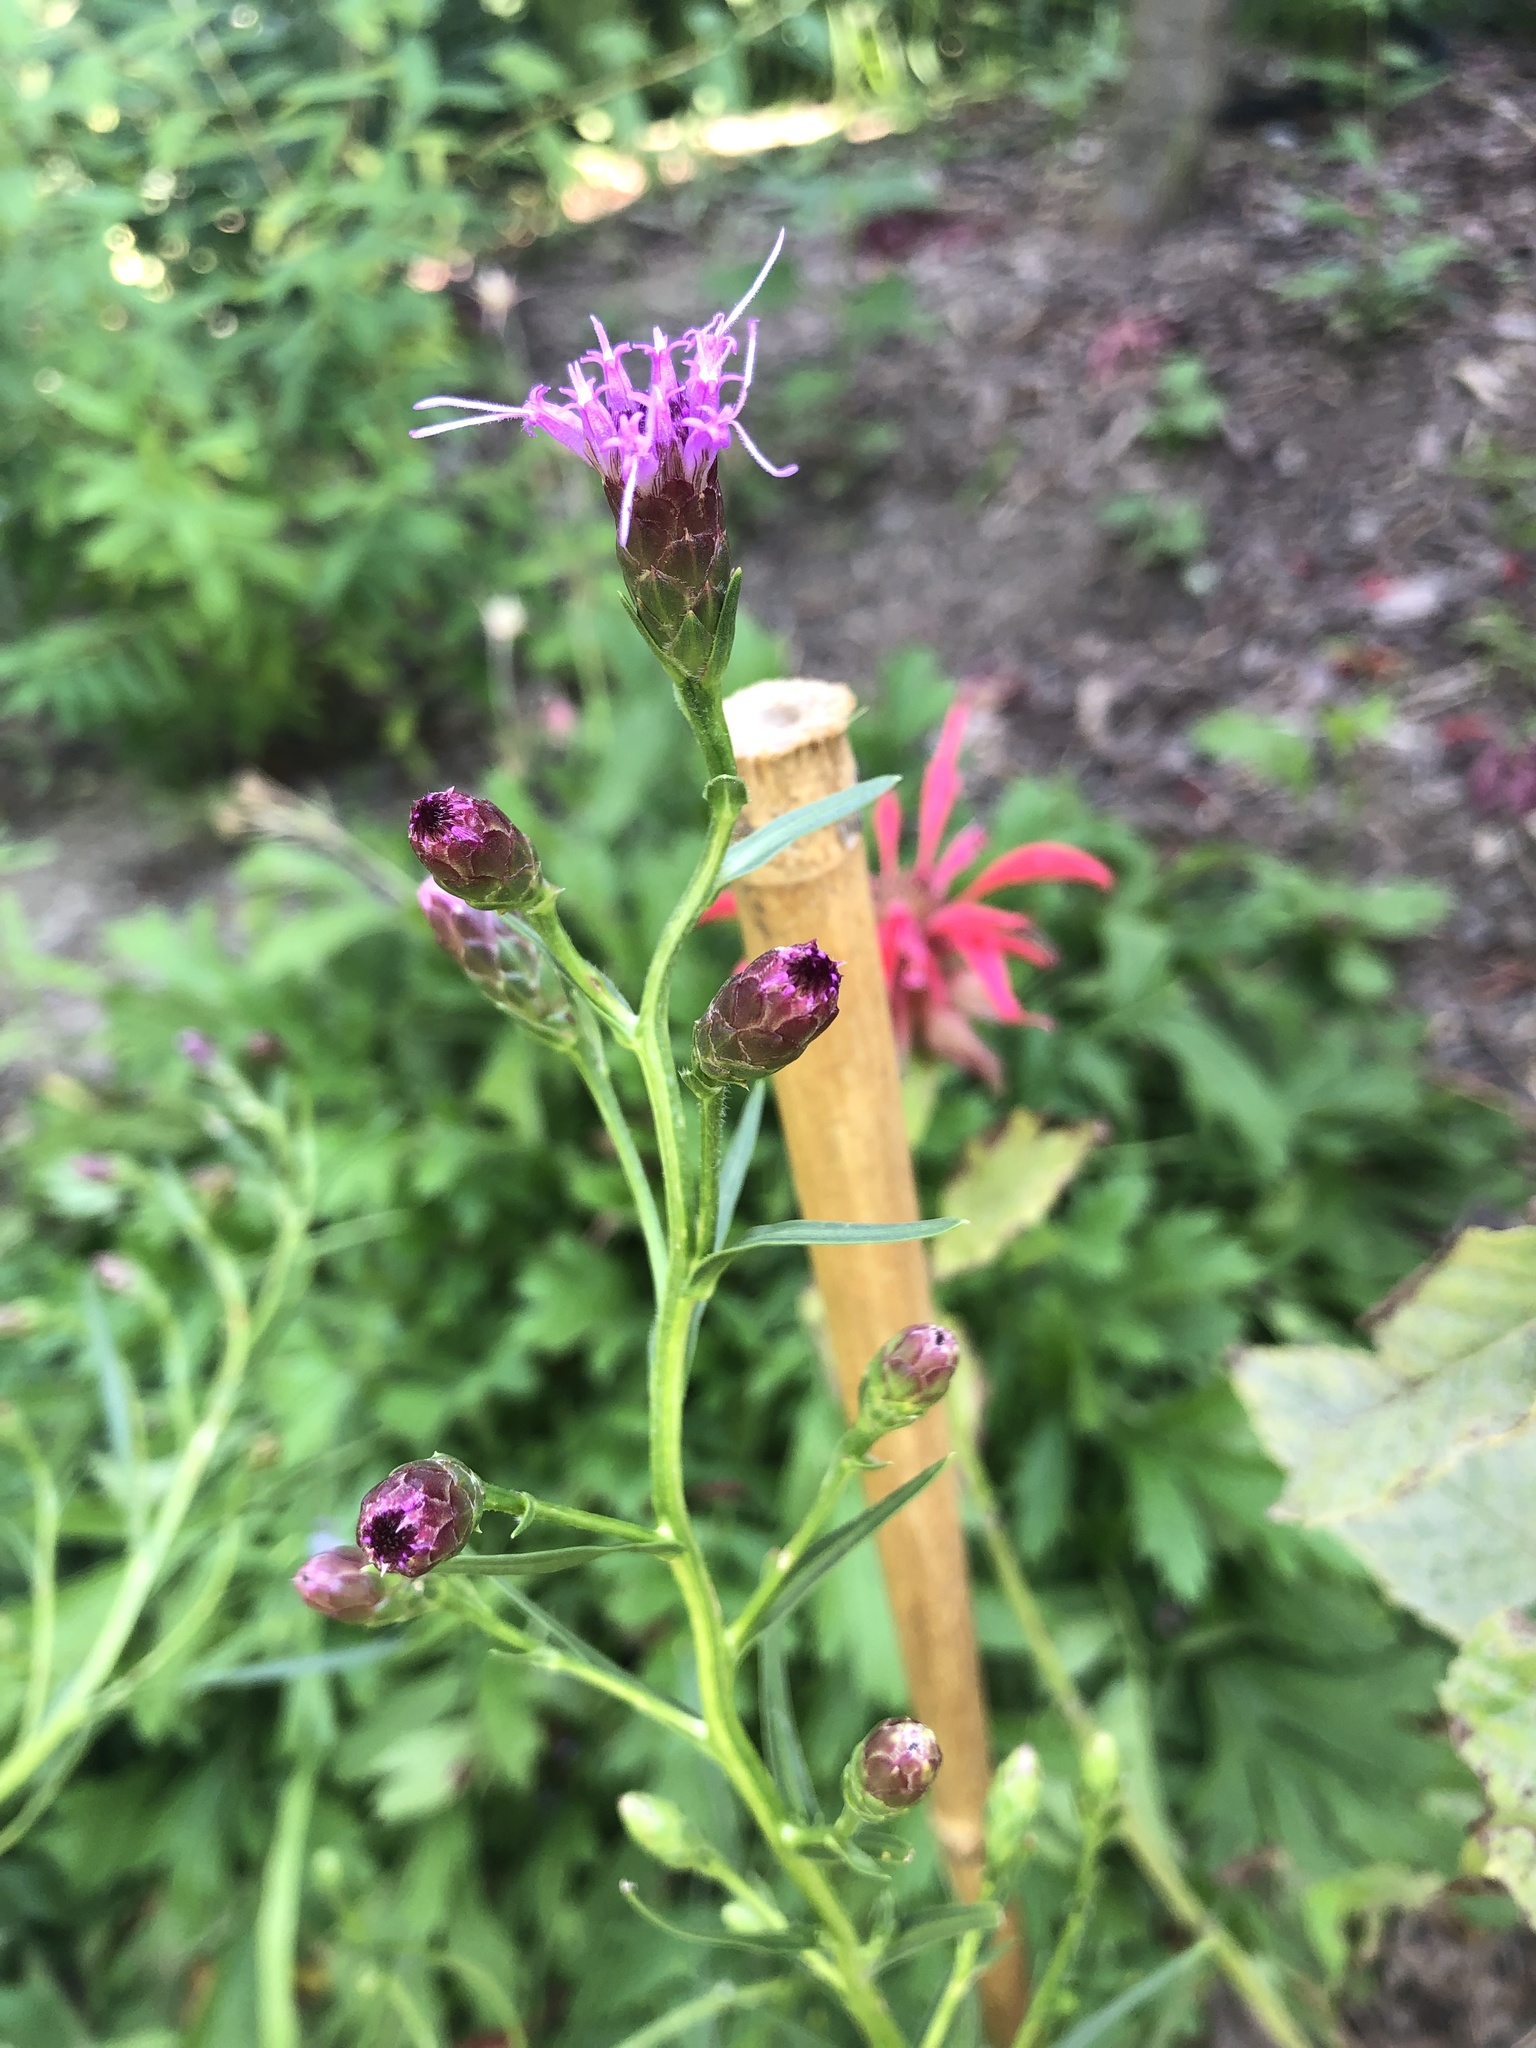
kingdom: Plantae
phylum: Tracheophyta
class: Magnoliopsida
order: Asterales
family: Asteraceae
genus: Liatris
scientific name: Liatris cylindracea
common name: Few-head blazingstar
